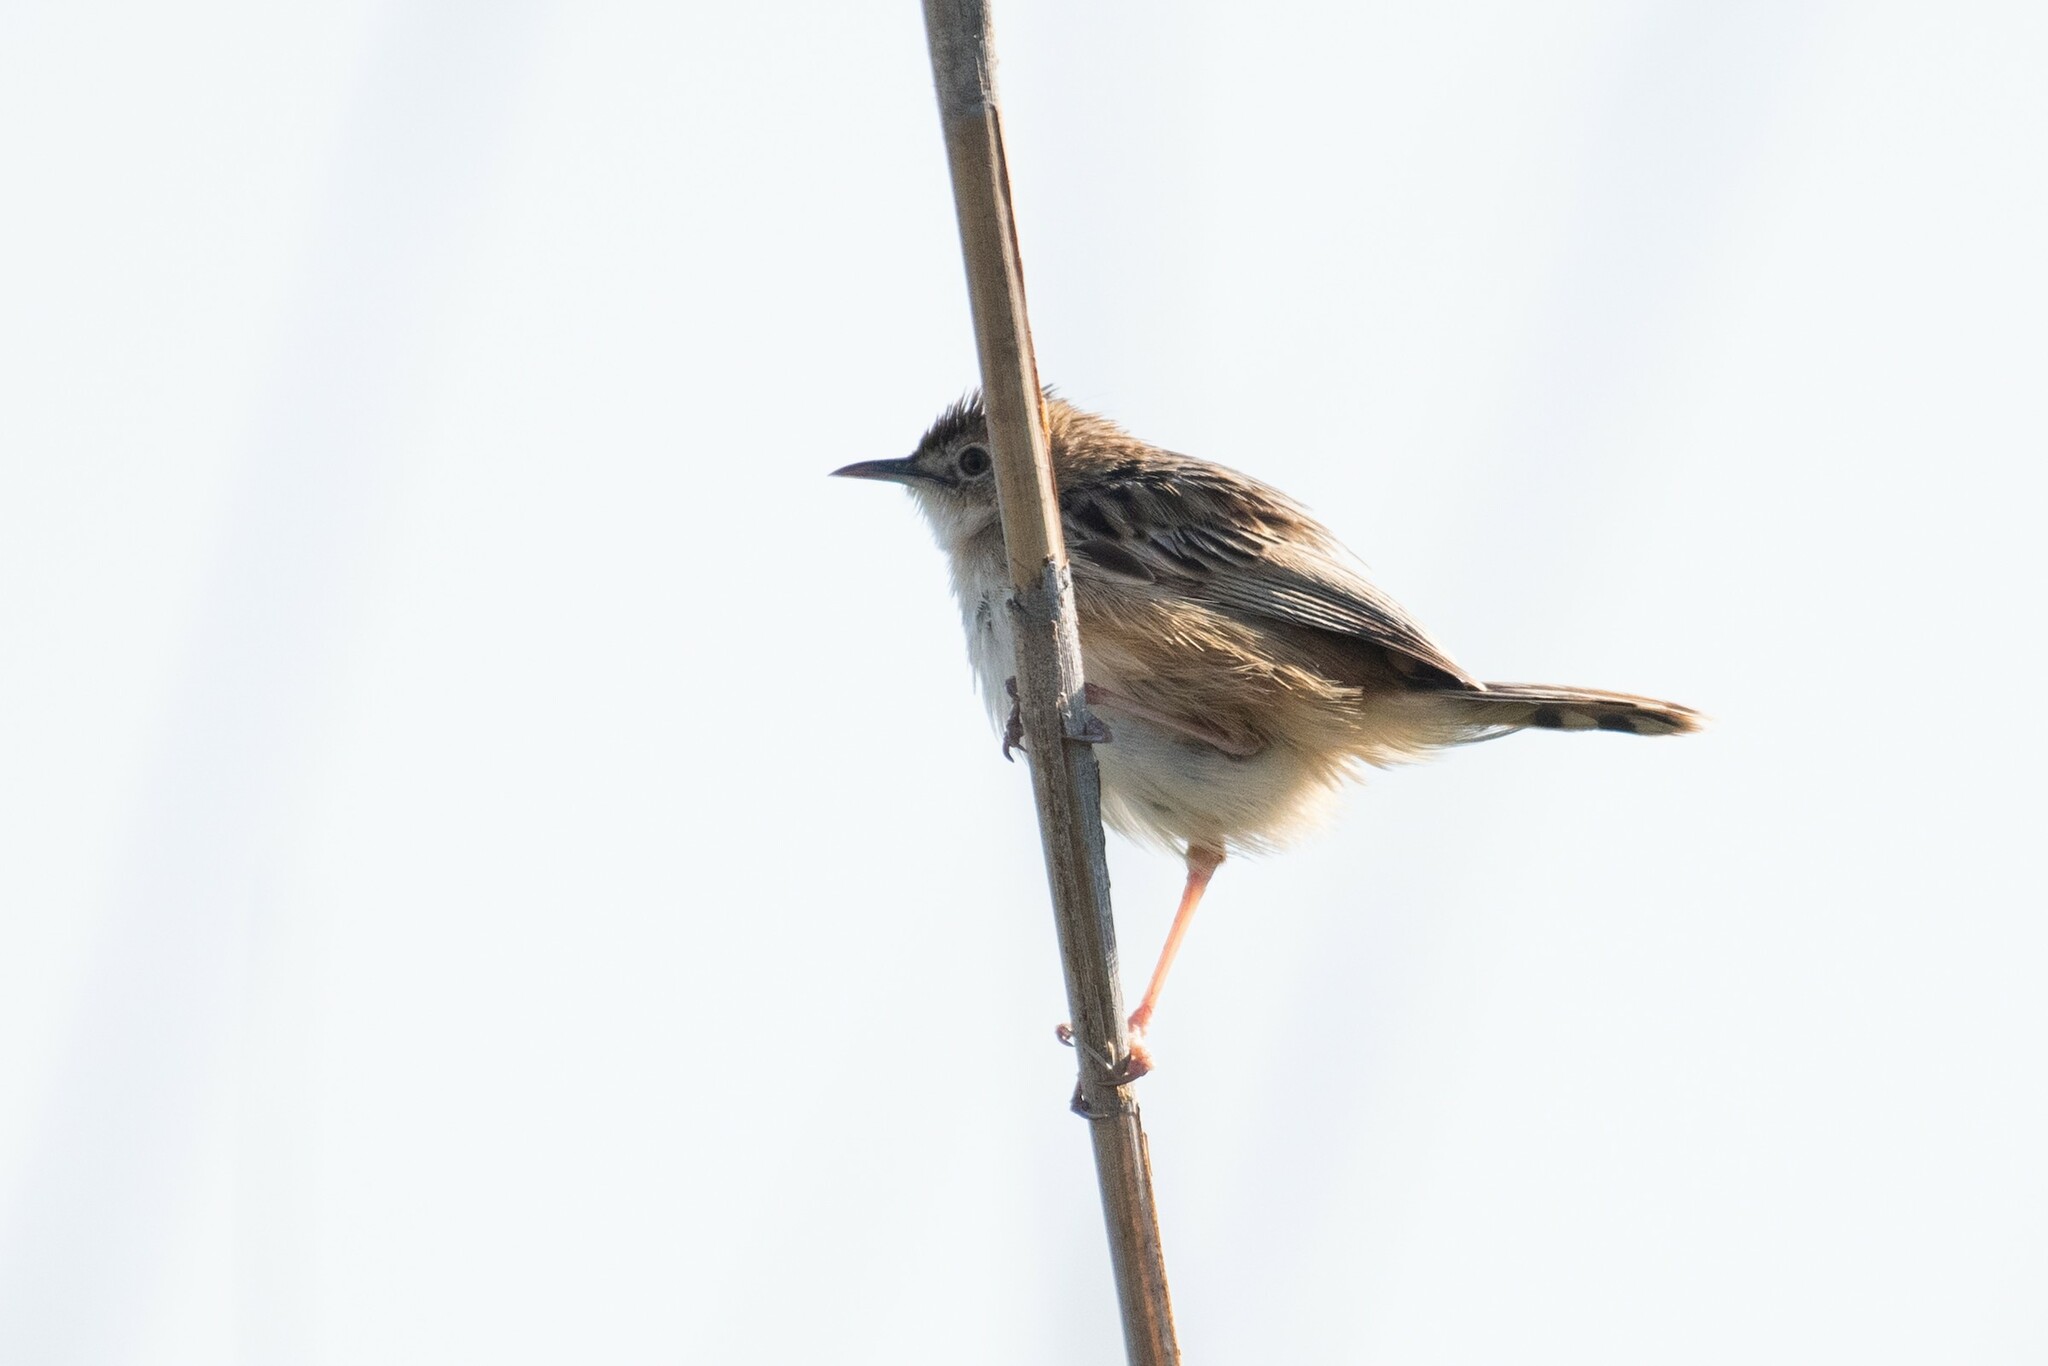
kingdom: Animalia
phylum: Chordata
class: Aves
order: Passeriformes
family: Cisticolidae
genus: Cisticola
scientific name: Cisticola juncidis
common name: Zitting cisticola
